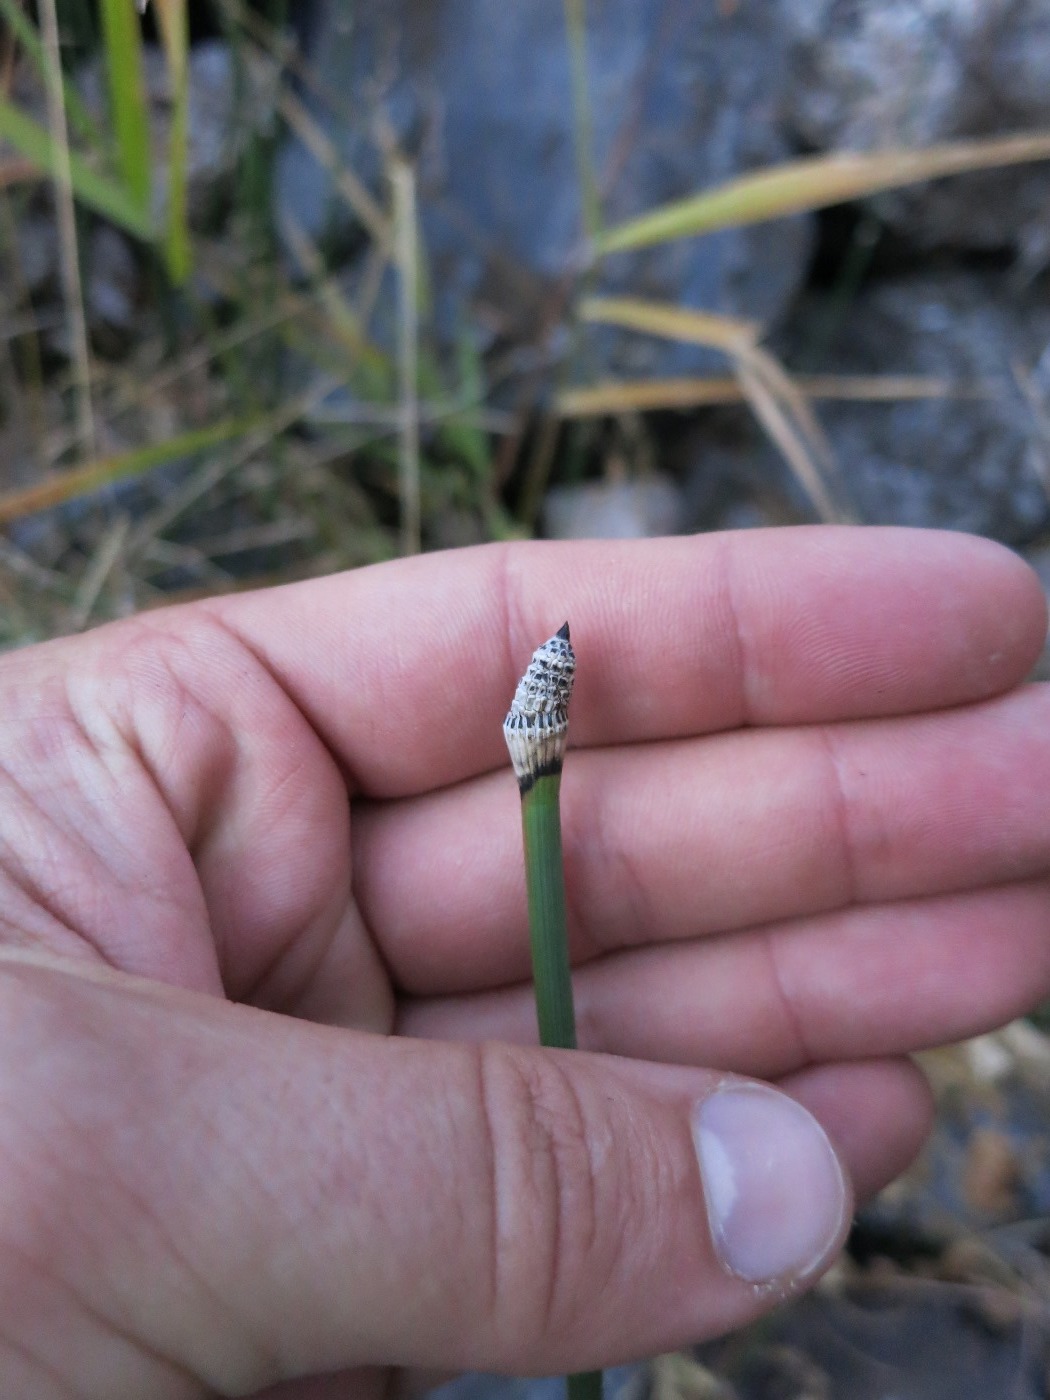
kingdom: Plantae
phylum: Tracheophyta
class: Polypodiopsida
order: Equisetales
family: Equisetaceae
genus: Equisetum
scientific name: Equisetum hyemale
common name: Rough horsetail
